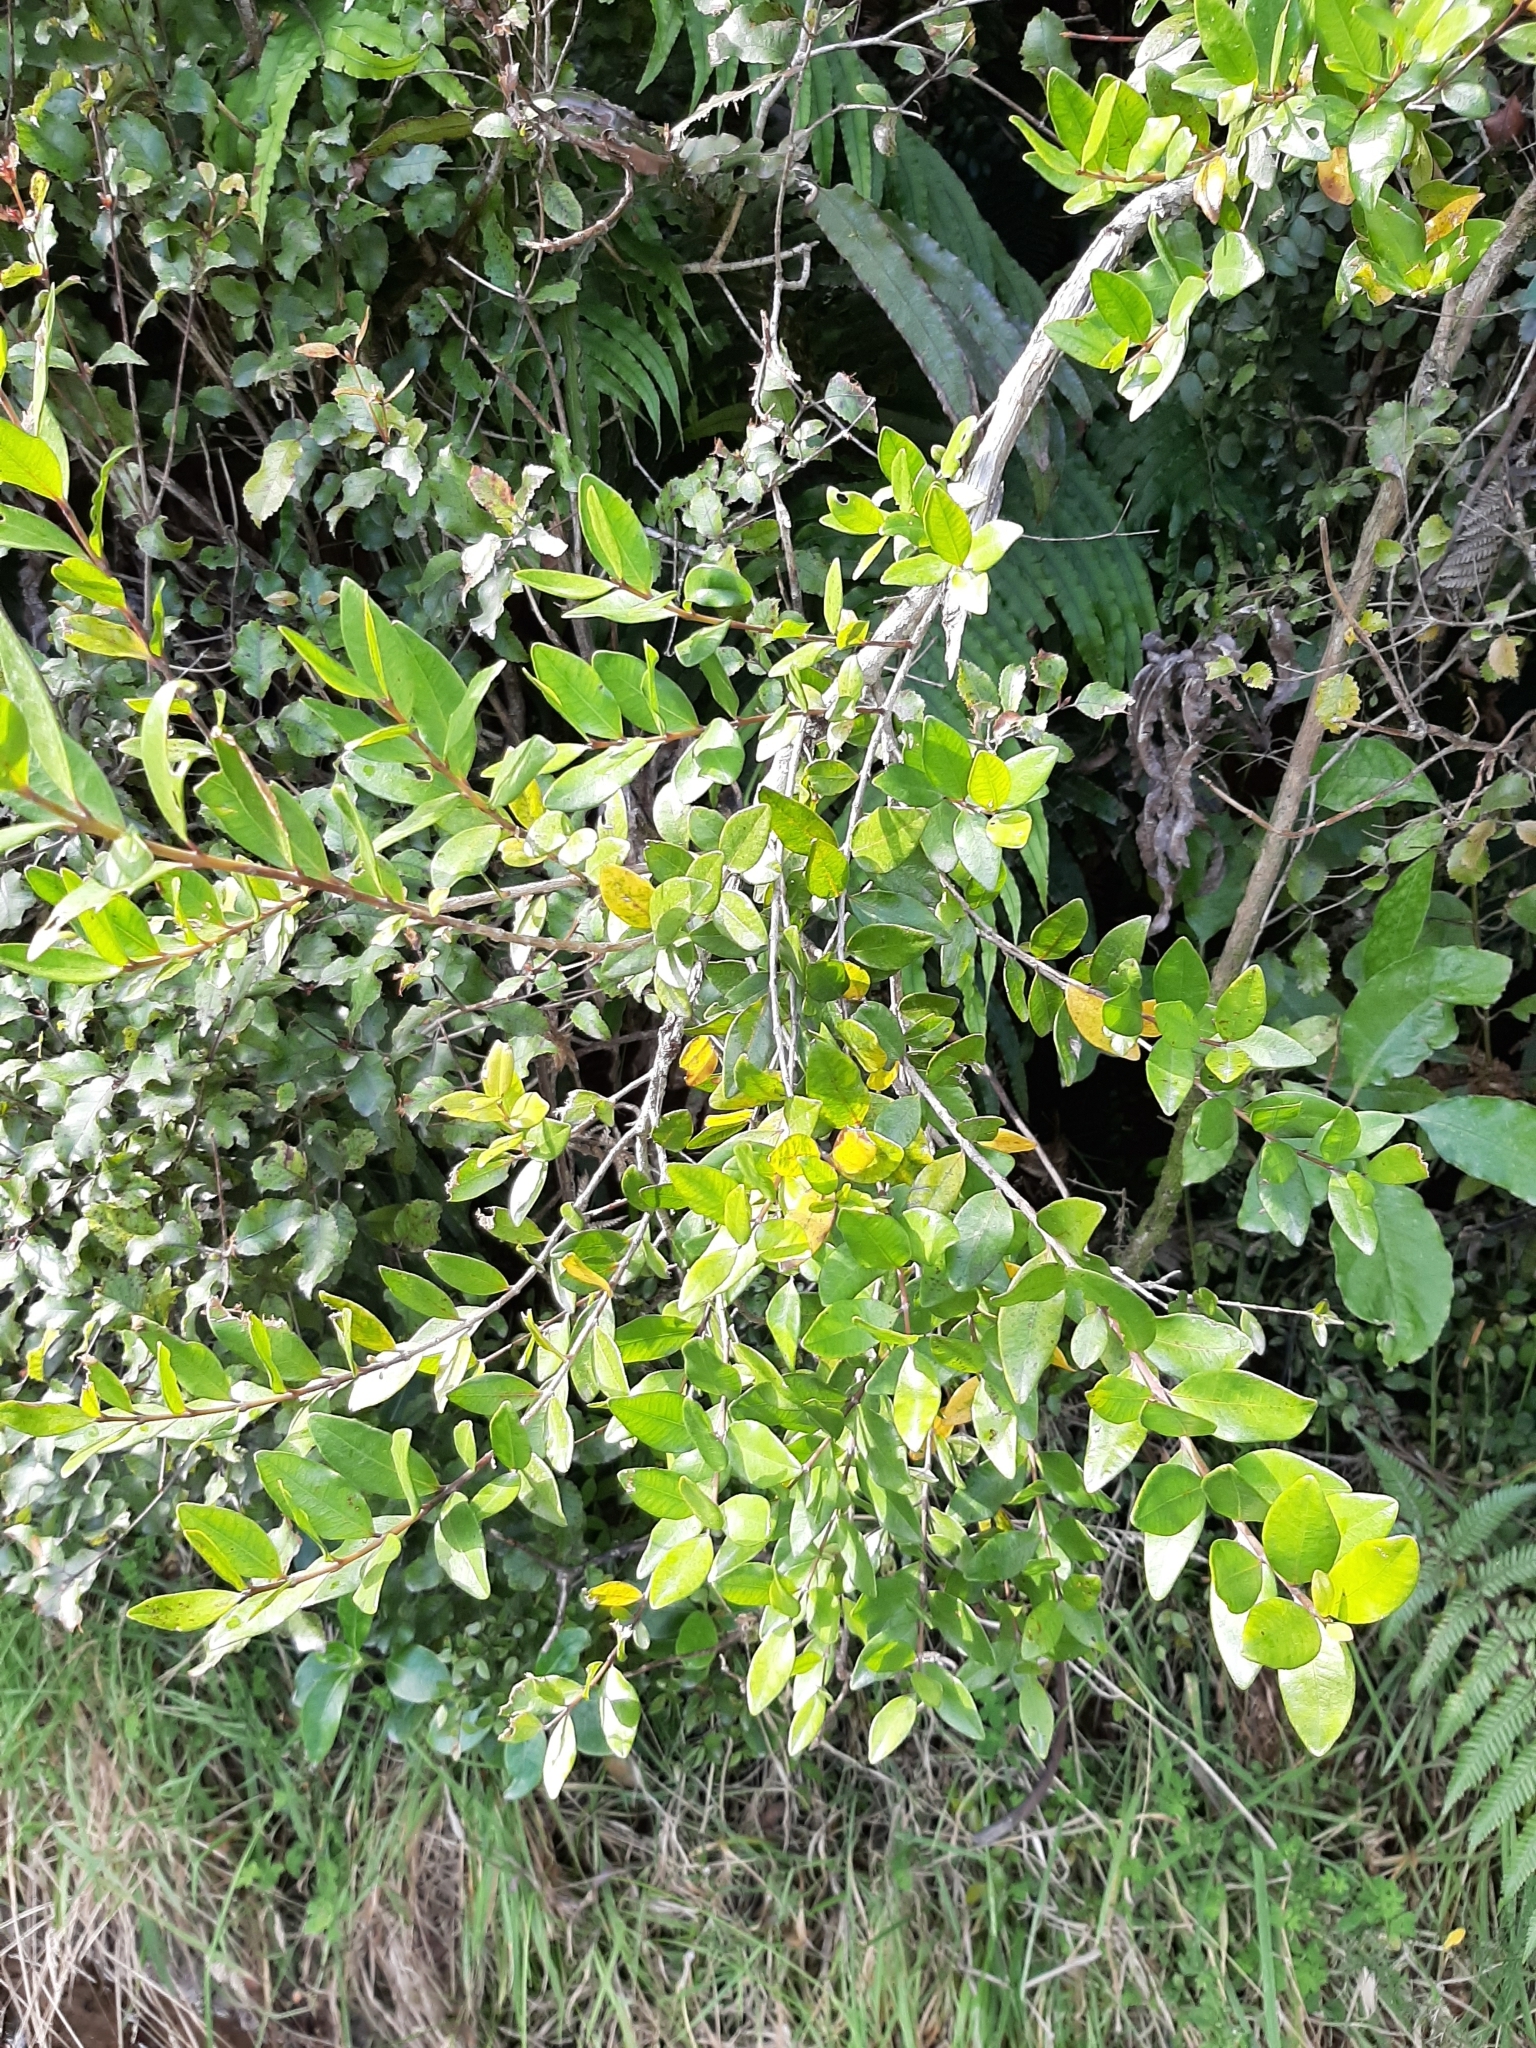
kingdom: Plantae
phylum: Tracheophyta
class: Magnoliopsida
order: Myrtales
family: Myrtaceae
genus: Metrosideros
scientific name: Metrosideros fulgens
